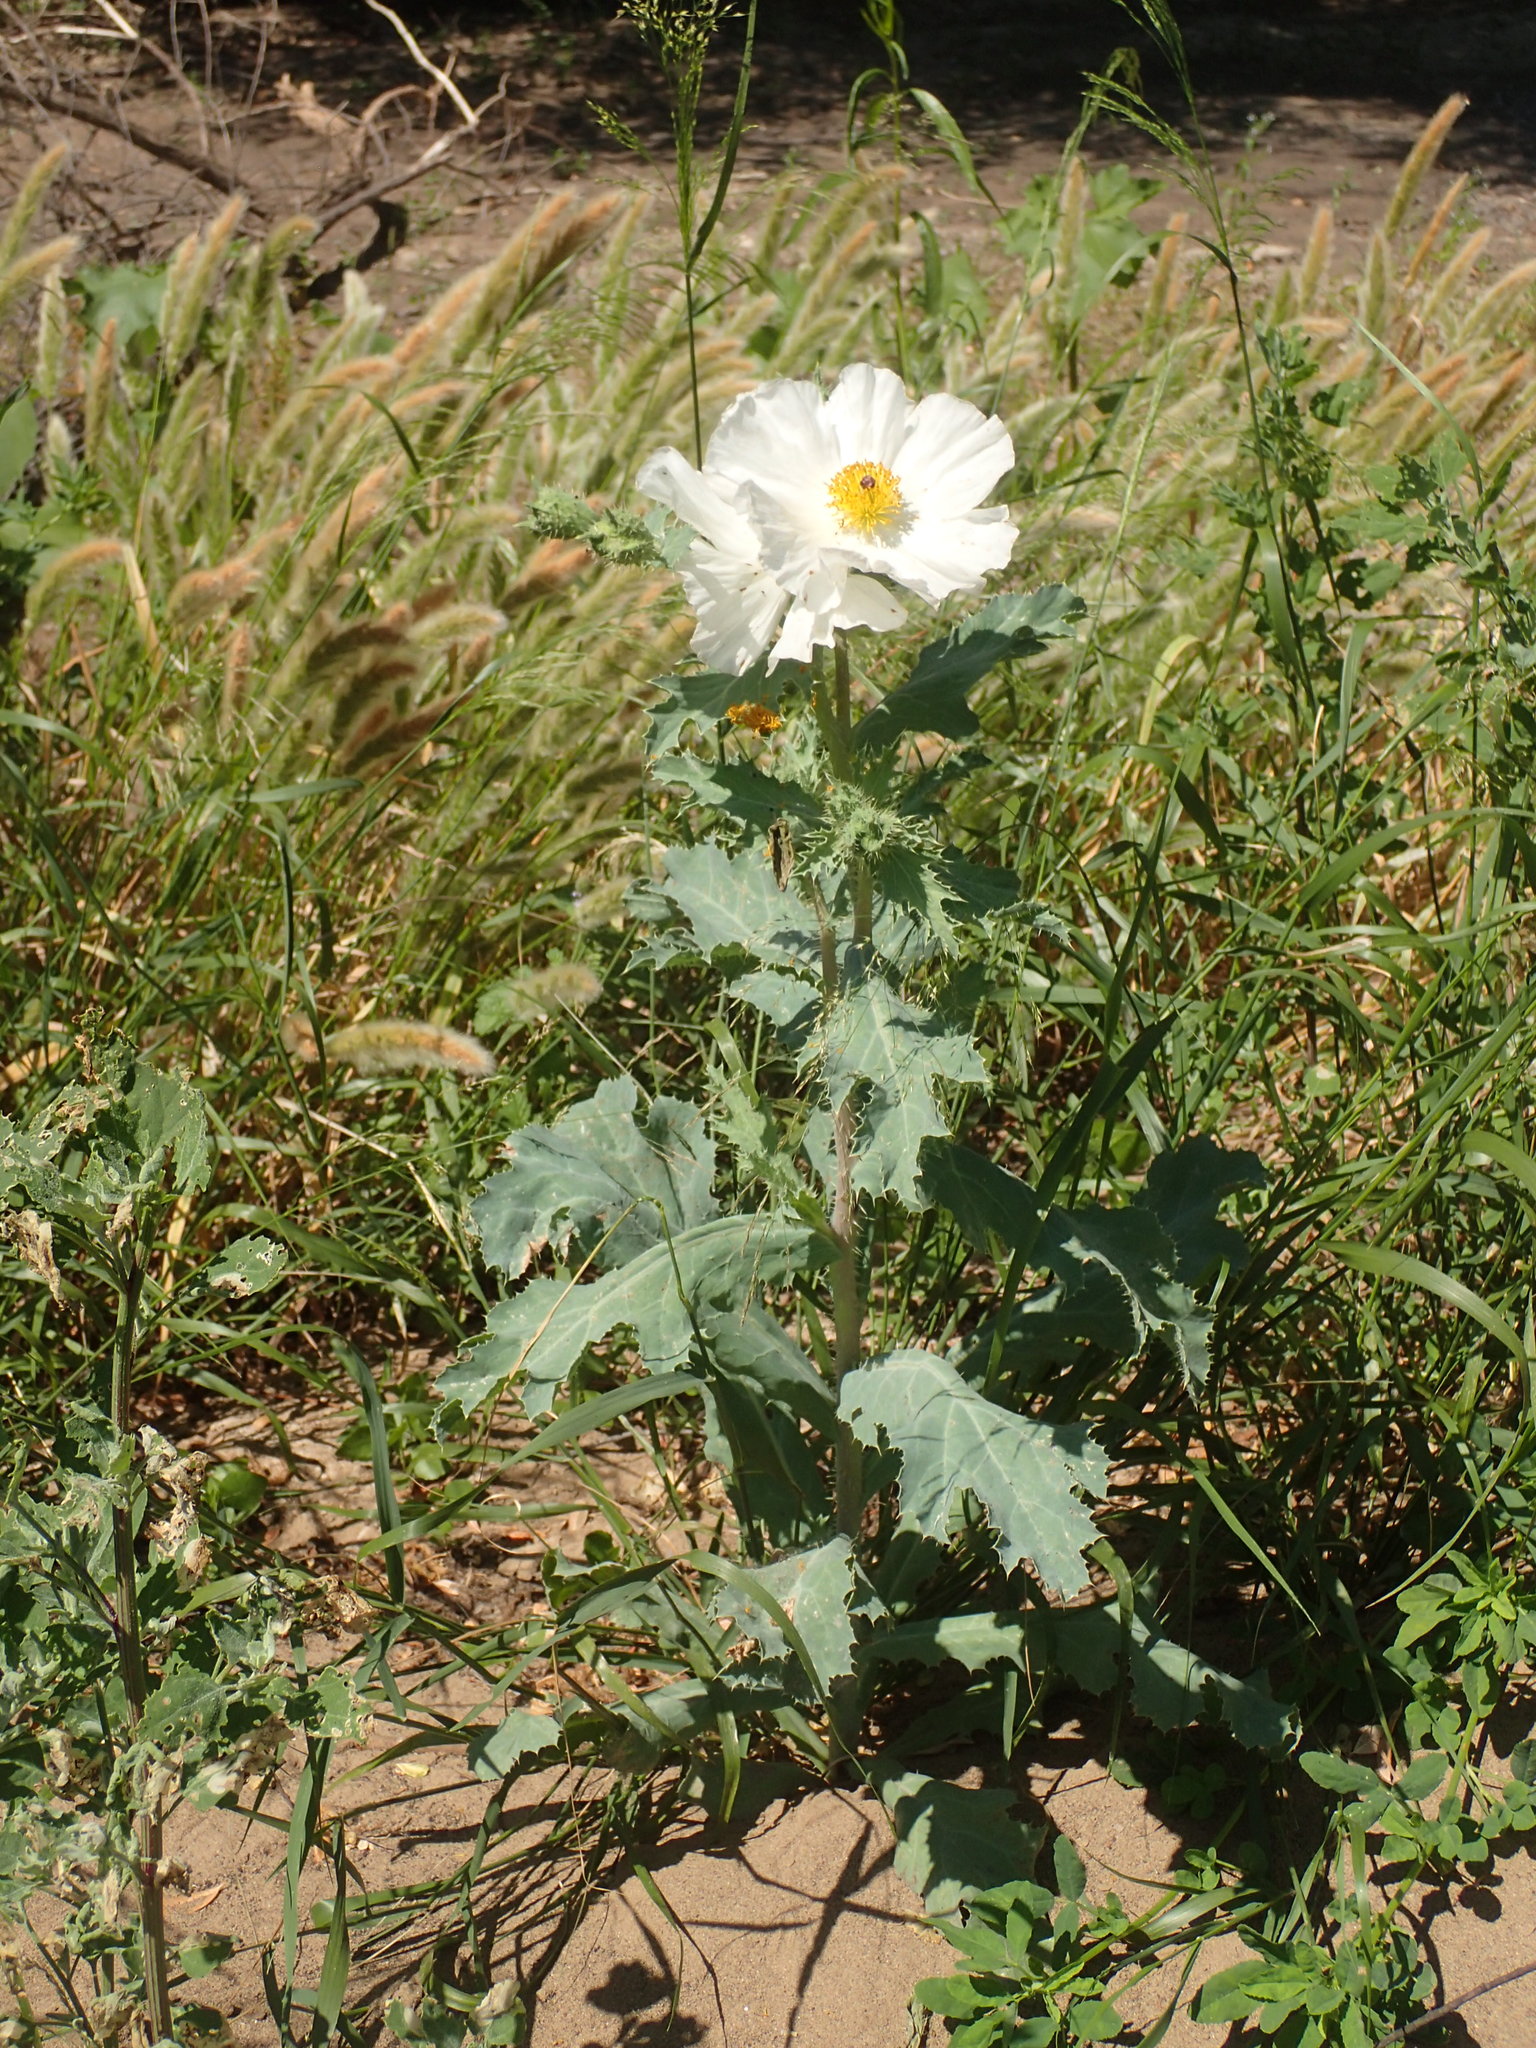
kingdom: Plantae
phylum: Tracheophyta
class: Magnoliopsida
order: Ranunculales
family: Papaveraceae
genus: Argemone
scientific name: Argemone munita
